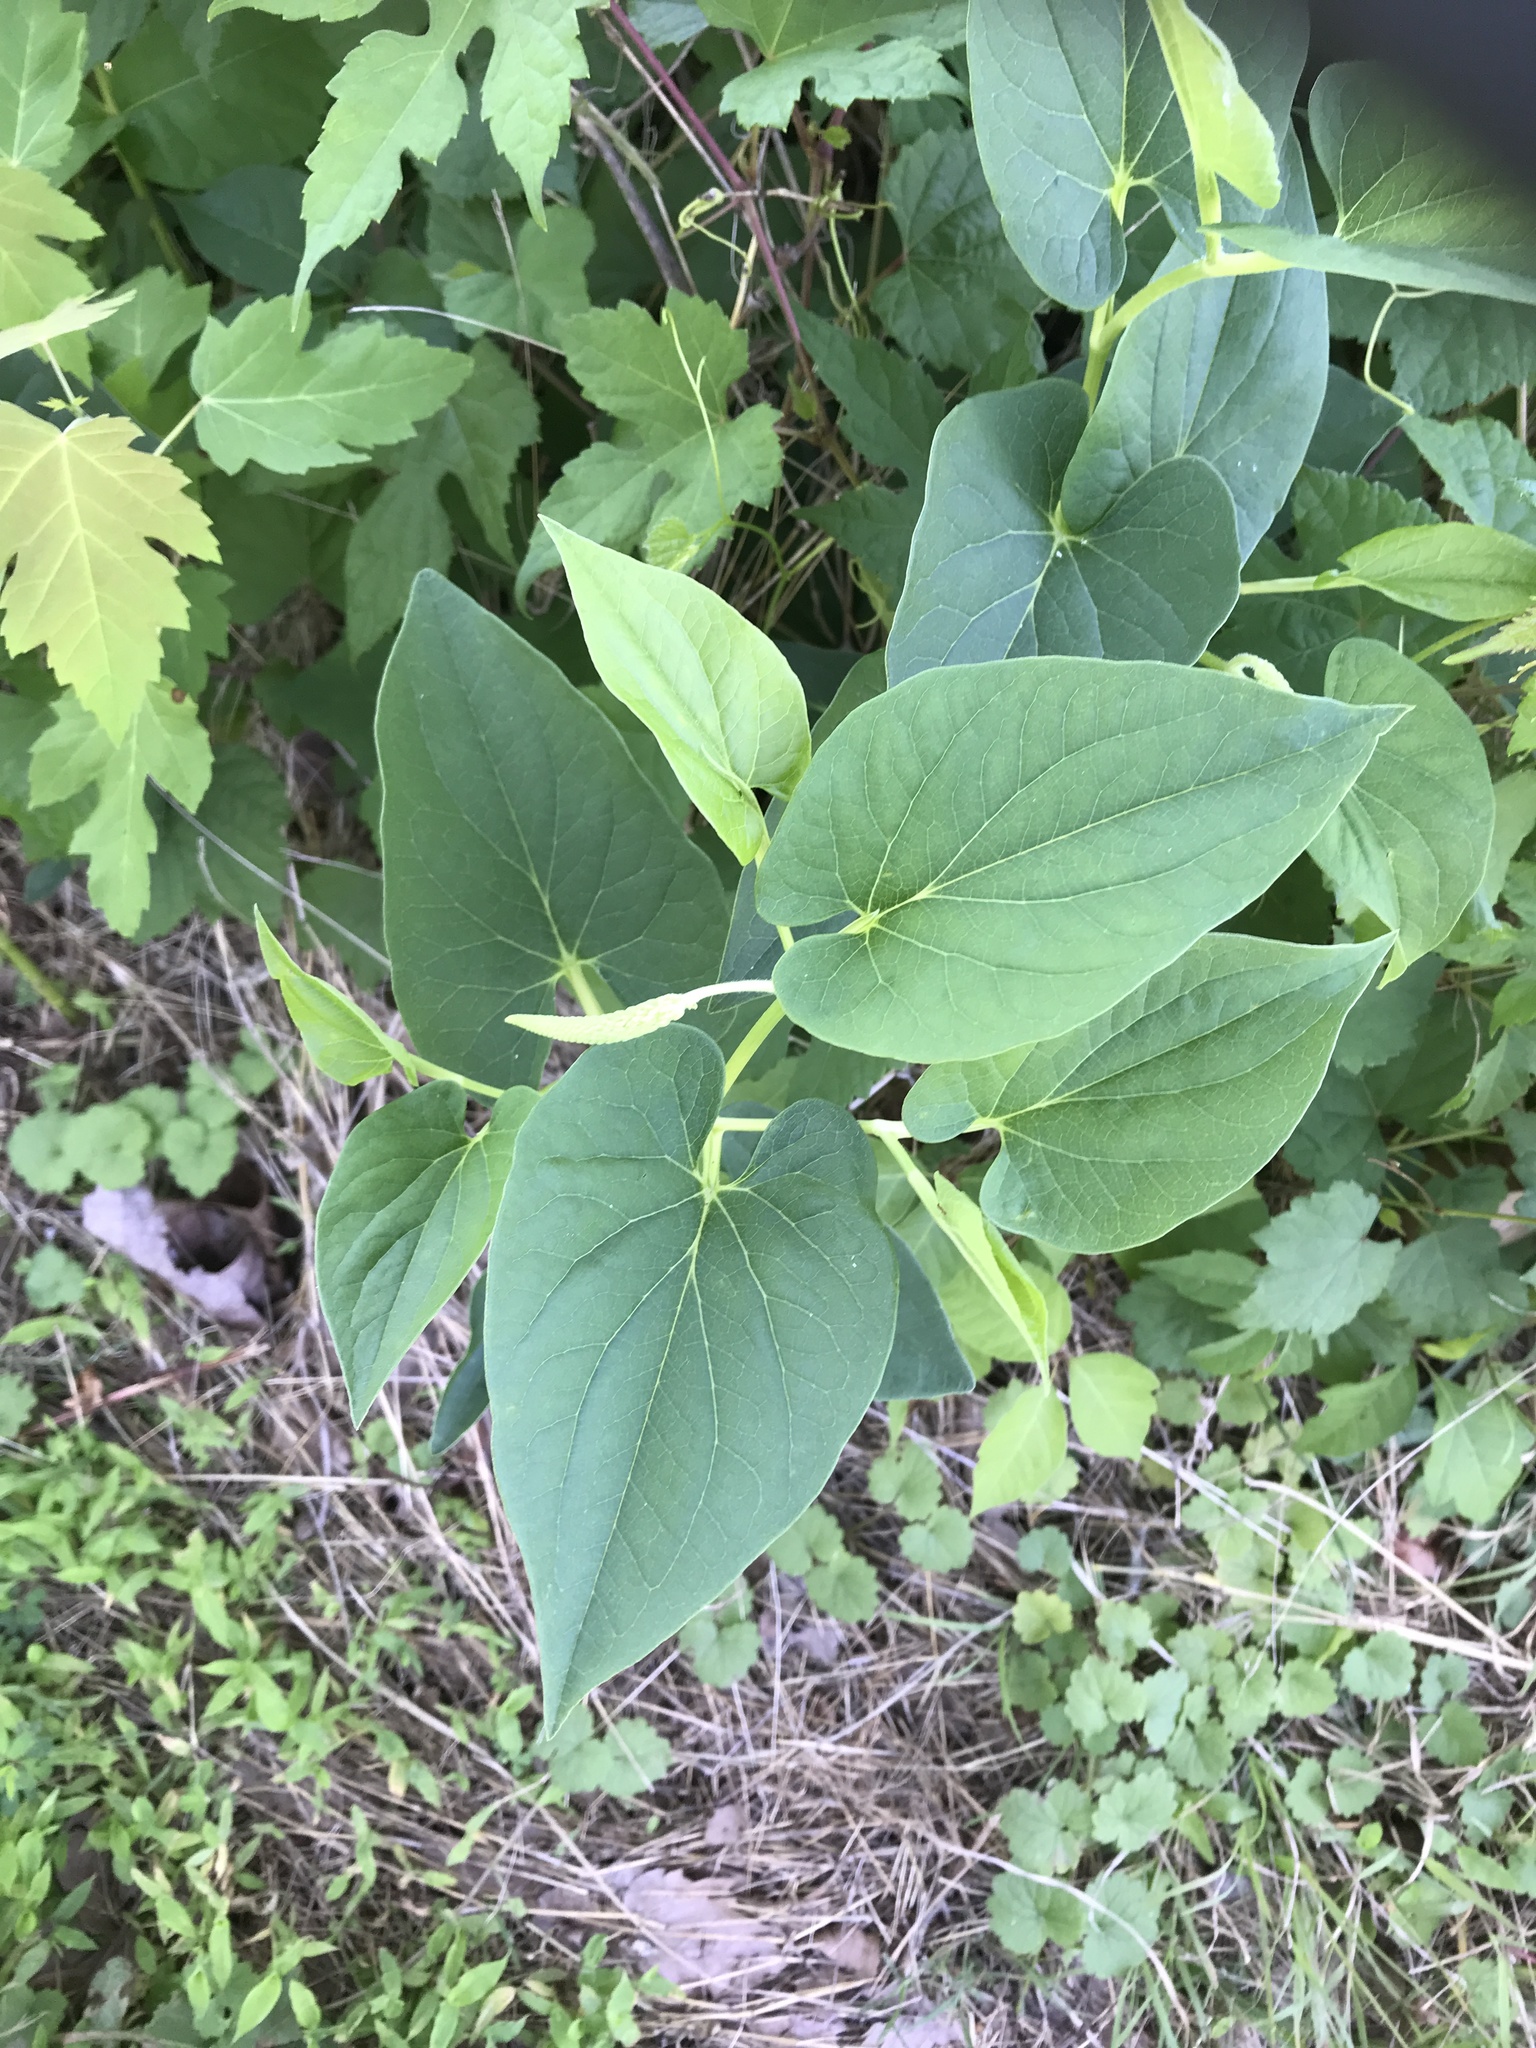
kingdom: Plantae
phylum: Tracheophyta
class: Magnoliopsida
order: Piperales
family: Saururaceae
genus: Saururus
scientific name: Saururus cernuus
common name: Lizard's-tail
